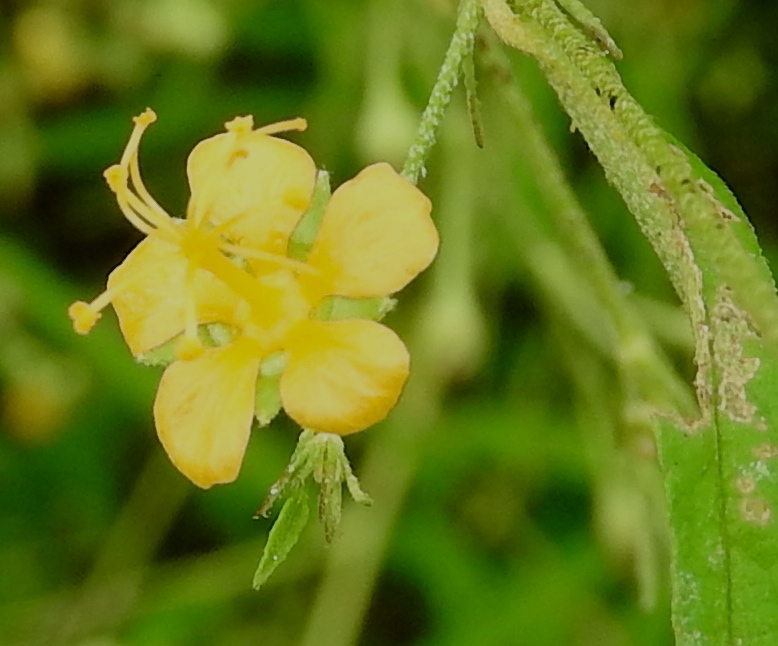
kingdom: Plantae
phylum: Tracheophyta
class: Magnoliopsida
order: Malvales
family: Malvaceae
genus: Sidastrum
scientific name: Sidastrum lodiegense
